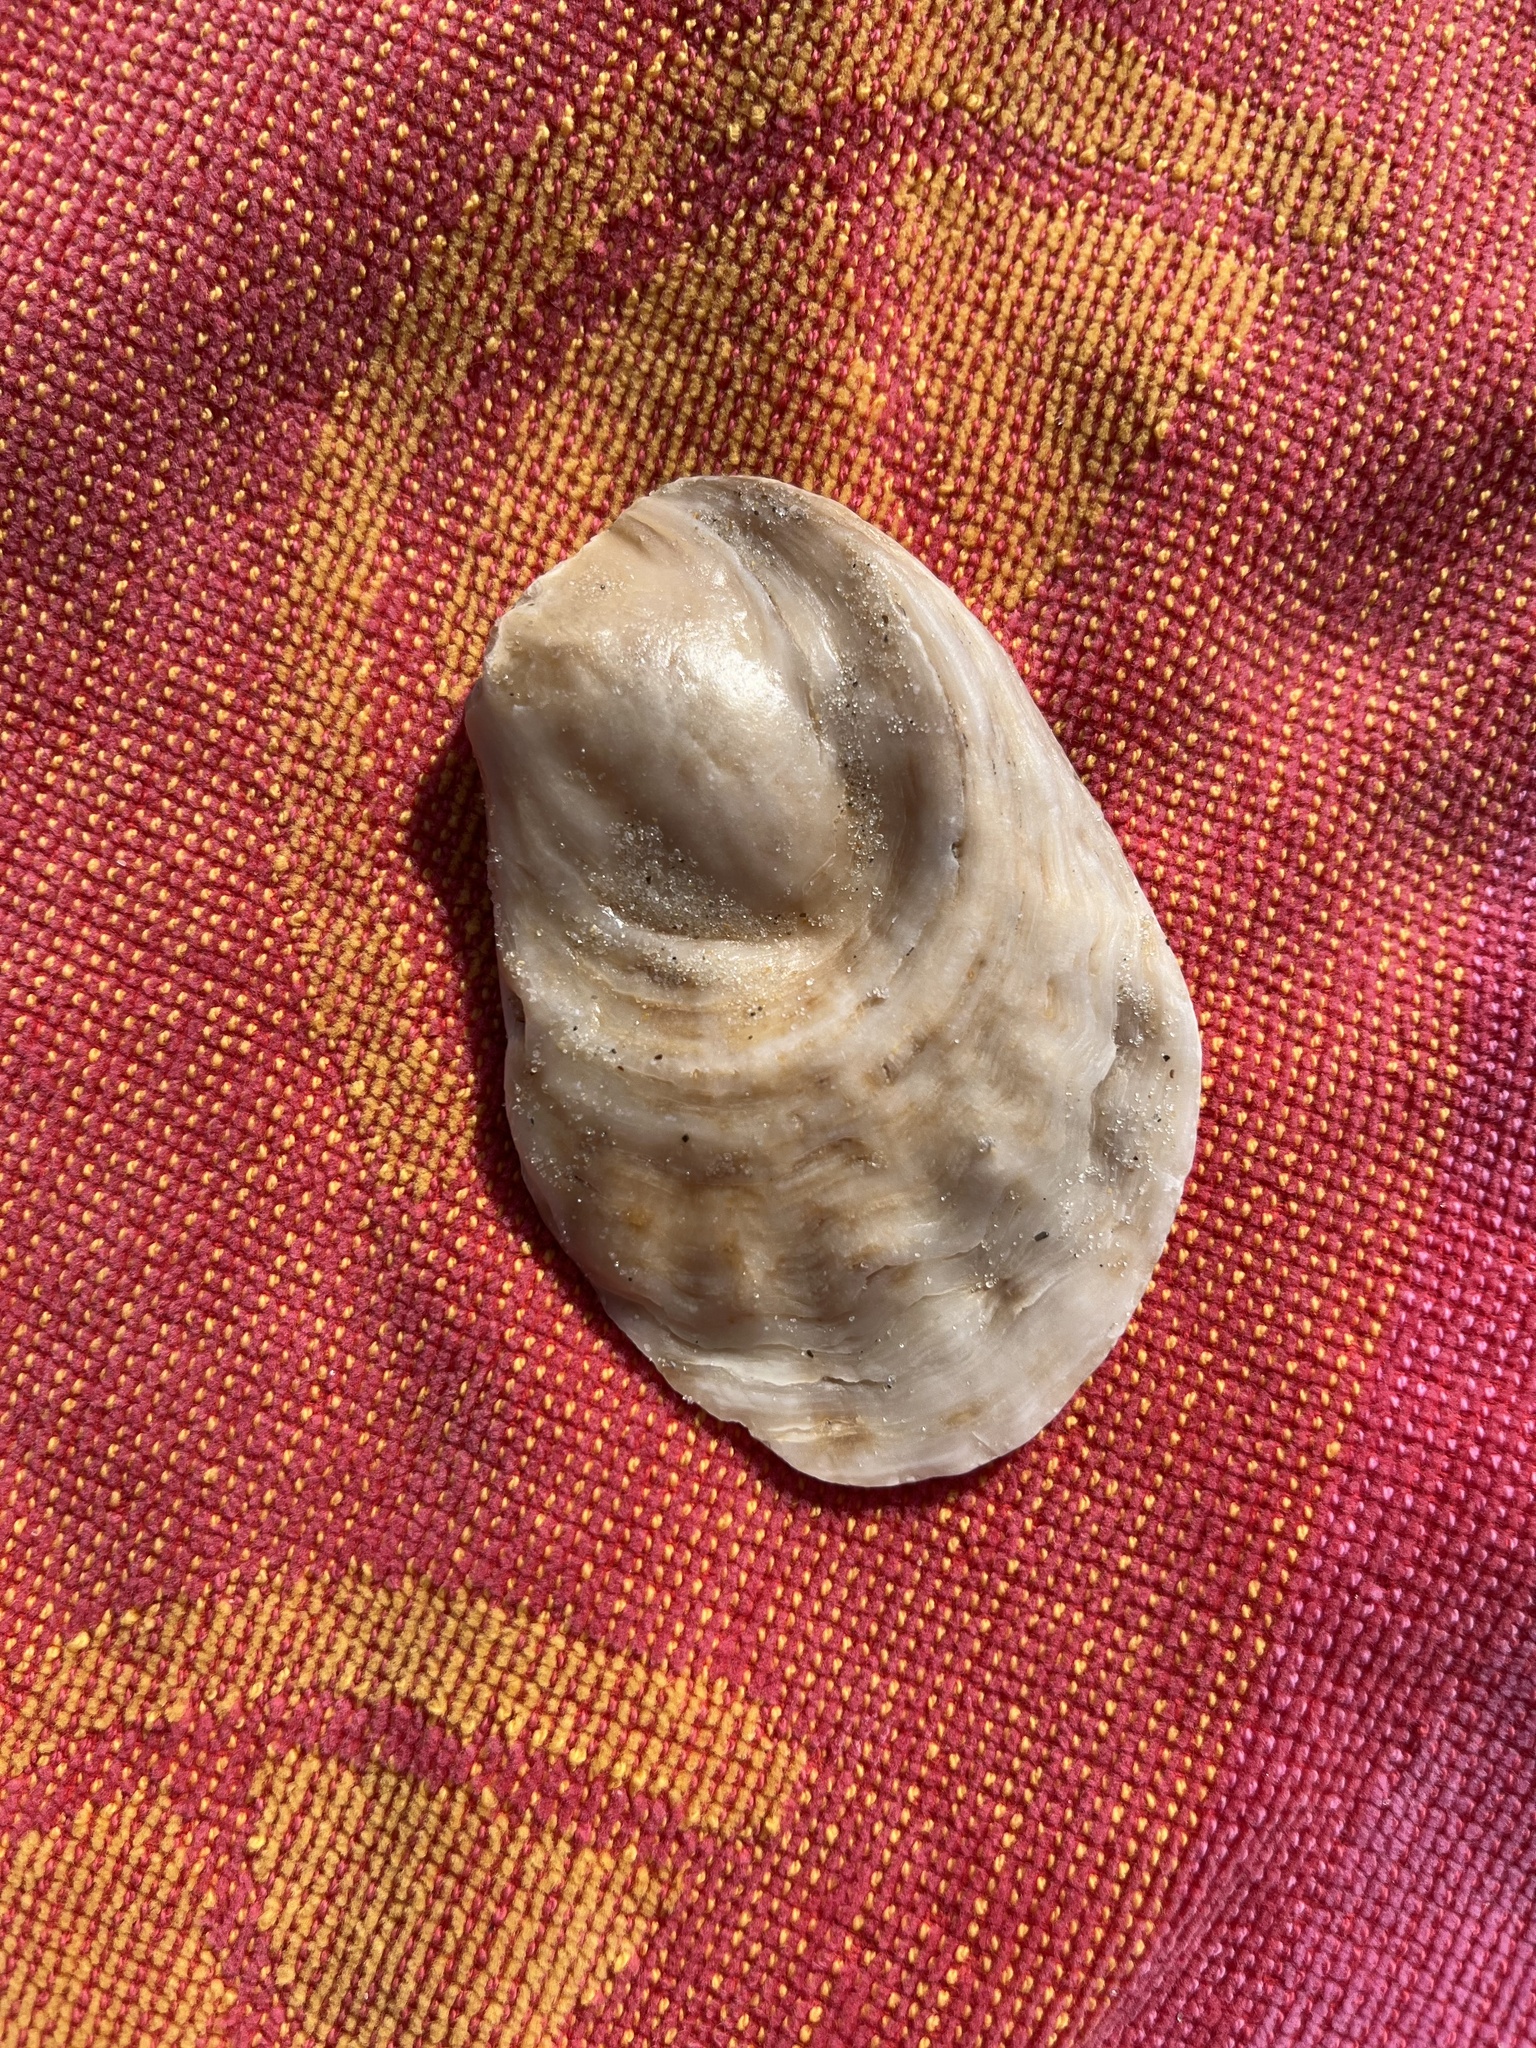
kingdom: Animalia
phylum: Mollusca
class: Bivalvia
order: Ostreida
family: Ostreidae
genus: Crassostrea
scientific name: Crassostrea virginica
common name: American oyster
